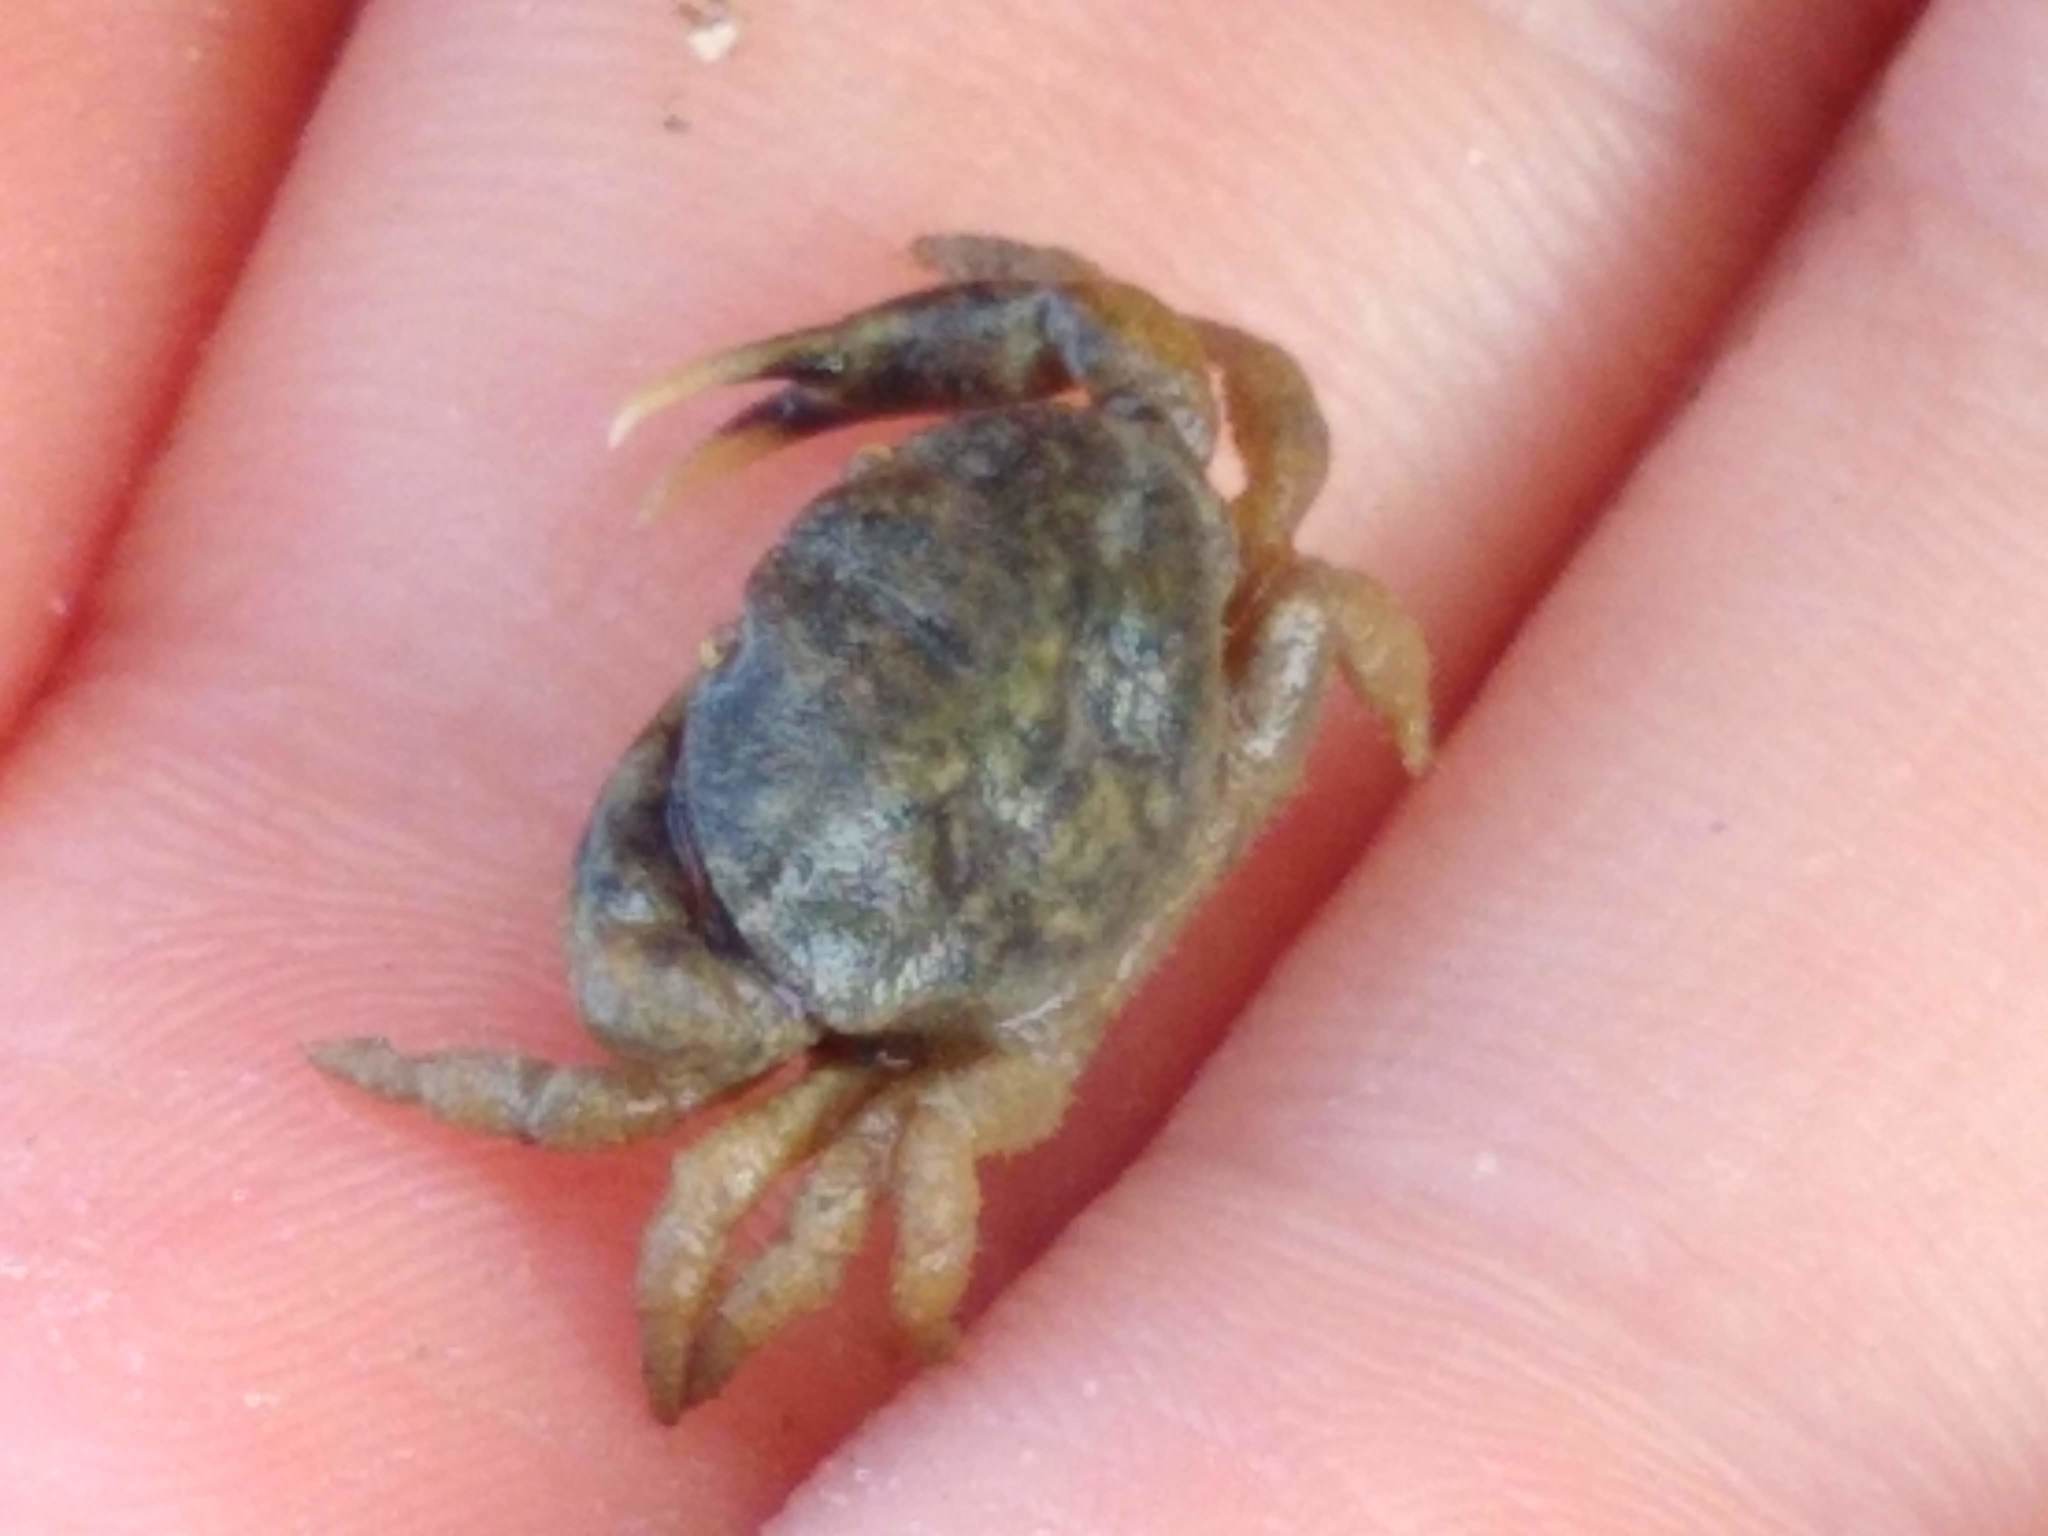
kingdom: Animalia
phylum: Arthropoda
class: Malacostraca
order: Decapoda
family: Heteroziidae
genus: Heterozius
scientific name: Heterozius rotundifrons
